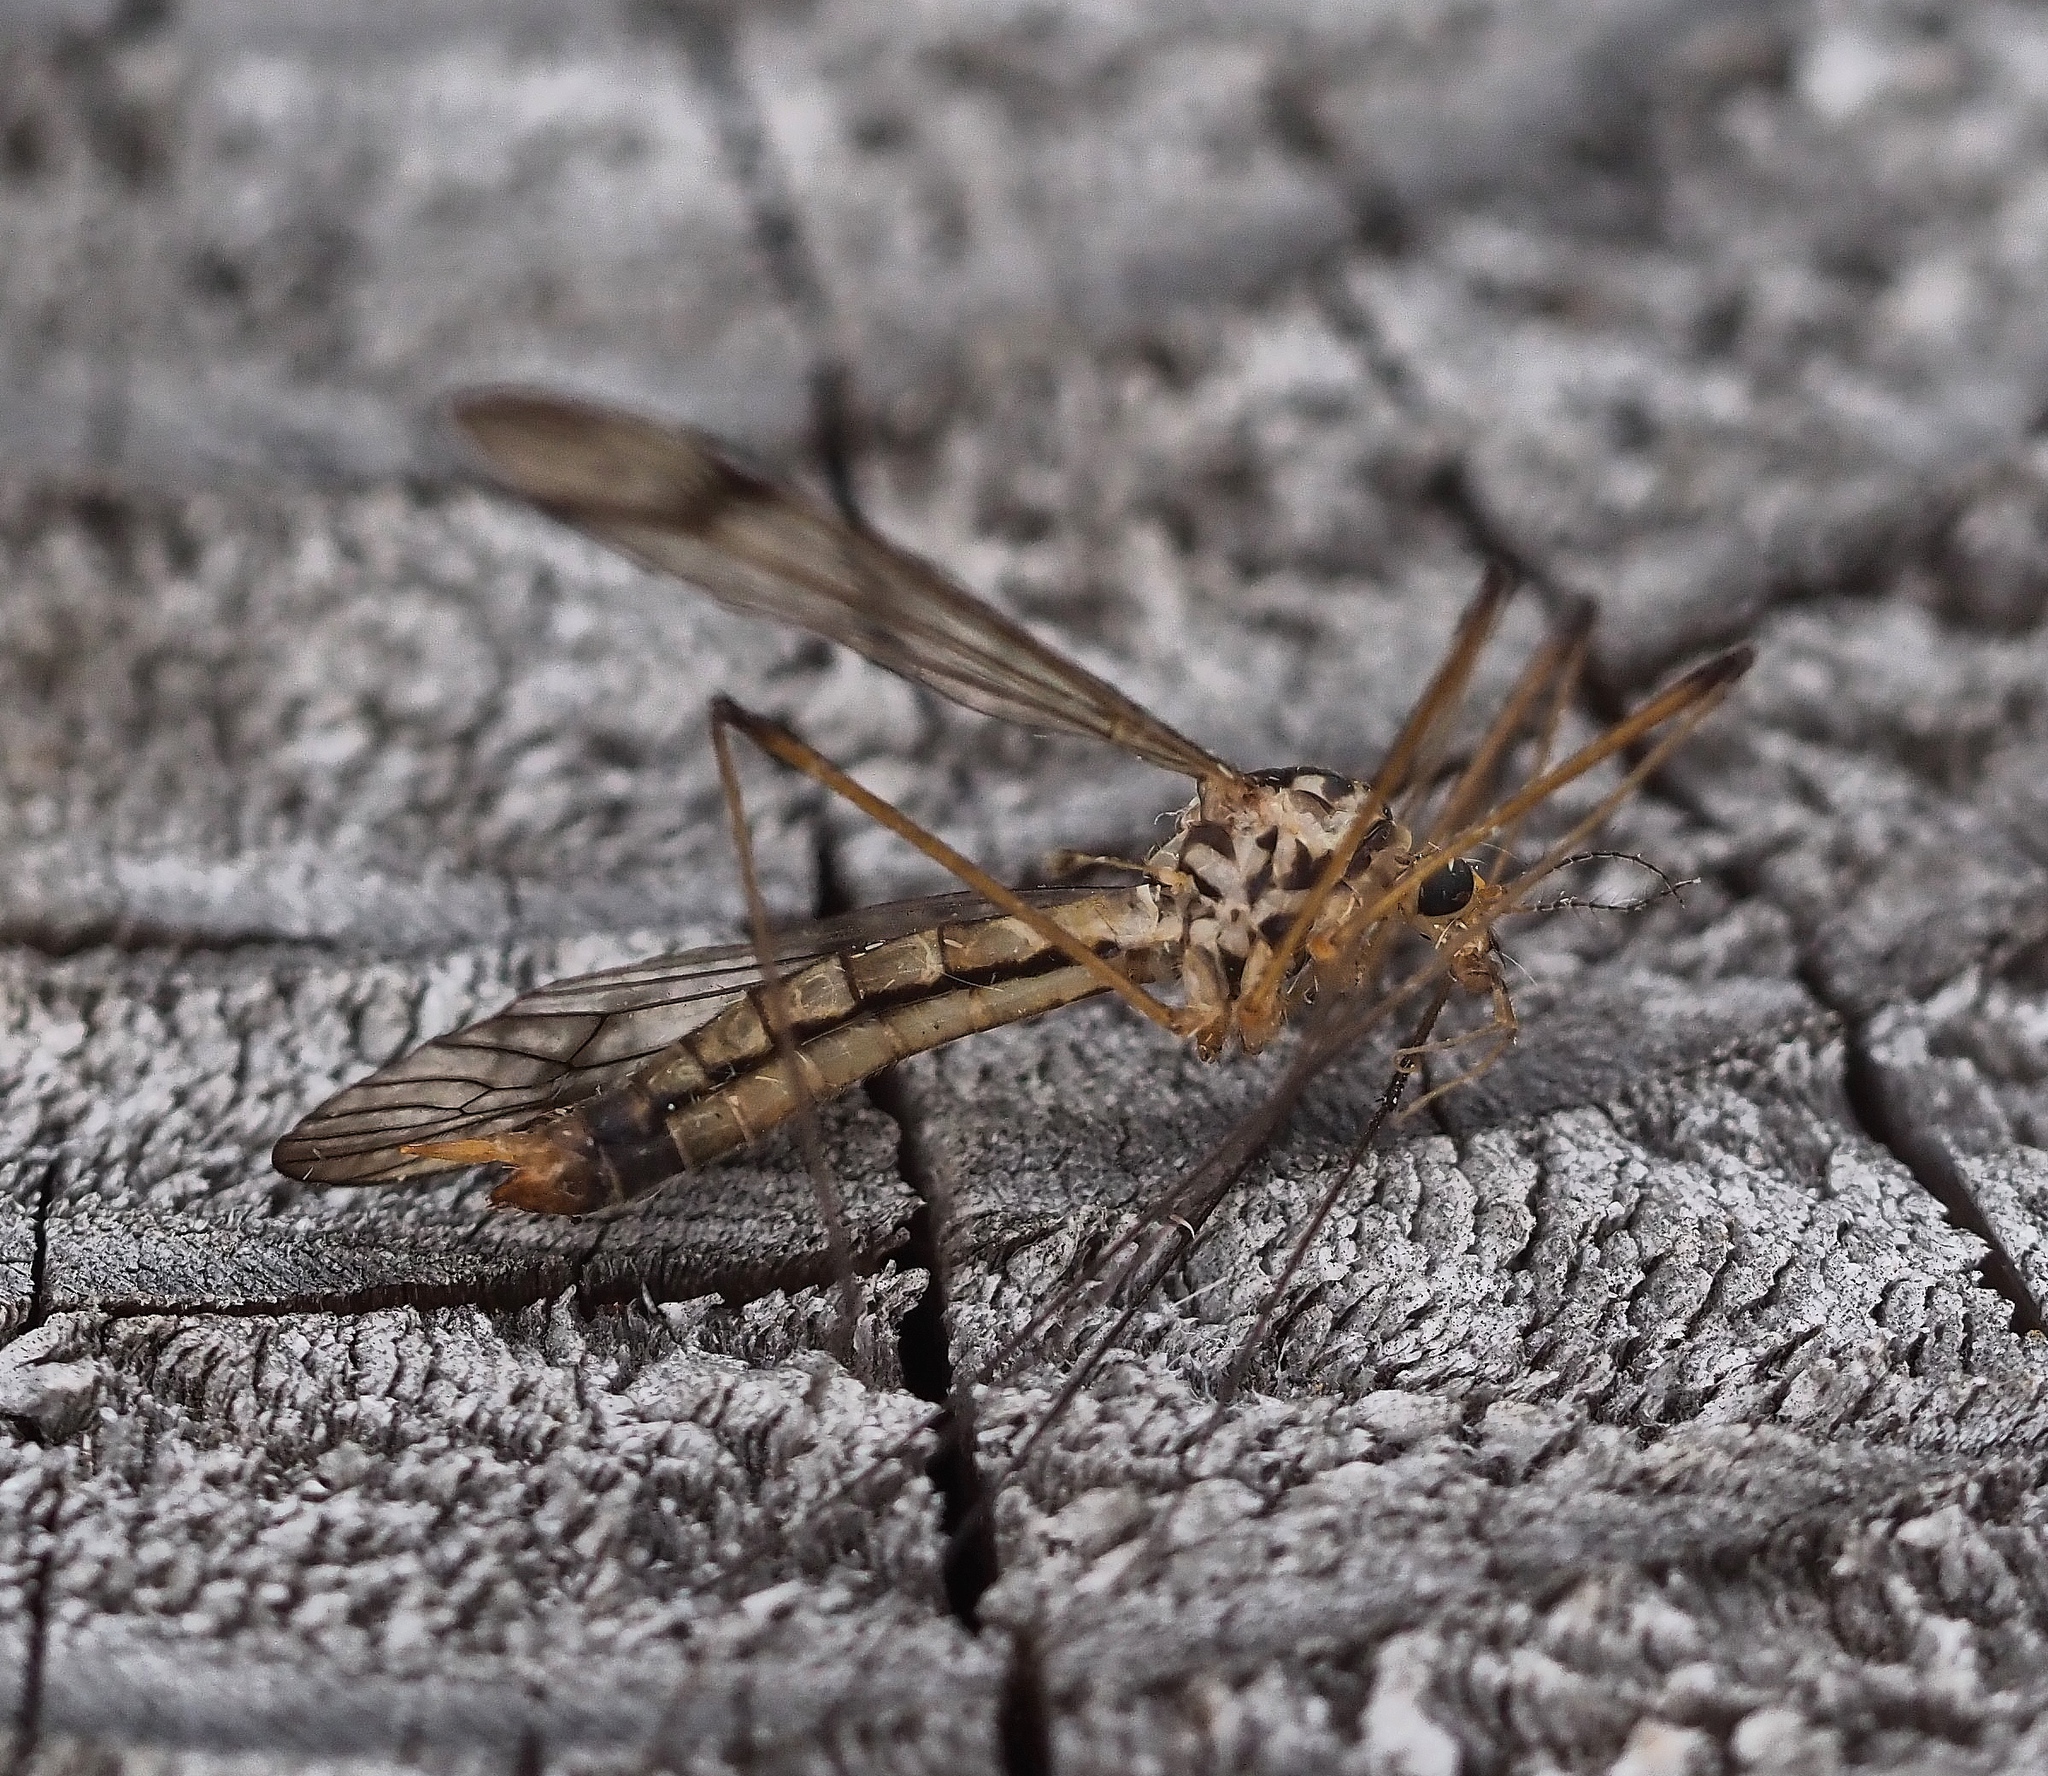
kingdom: Animalia
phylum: Arthropoda
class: Insecta
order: Diptera
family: Tipulidae
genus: Nephrotoma
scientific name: Nephrotoma quadrifaria
